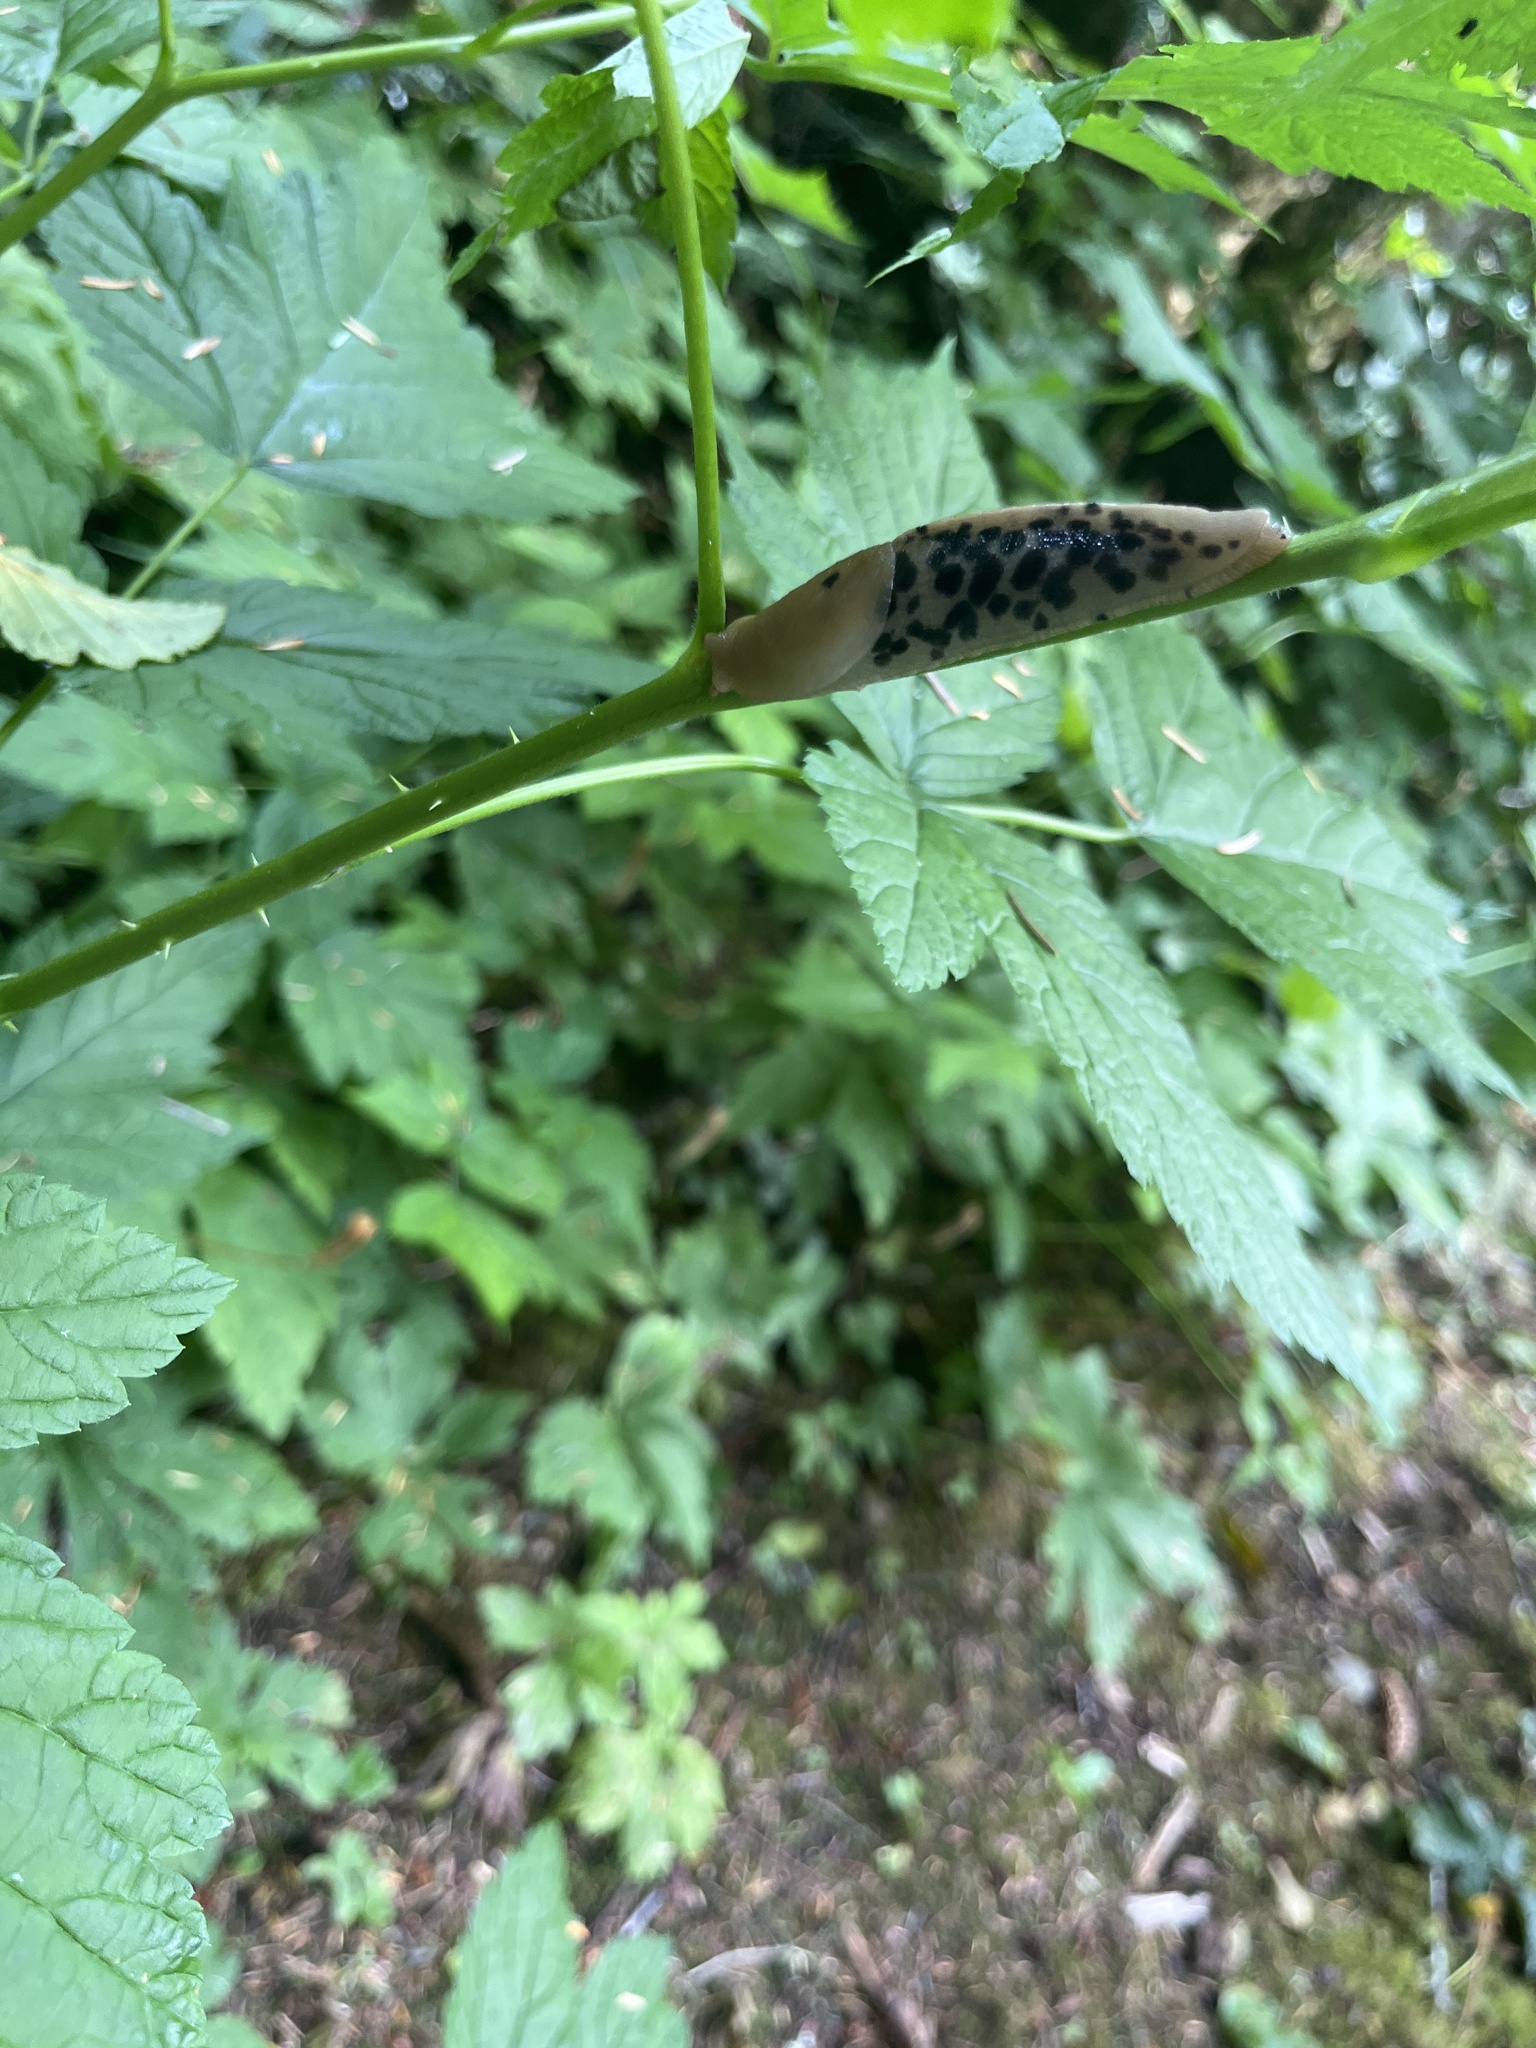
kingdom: Animalia
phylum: Mollusca
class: Gastropoda
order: Stylommatophora
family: Ariolimacidae
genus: Ariolimax
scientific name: Ariolimax columbianus
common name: Pacific banana slug
